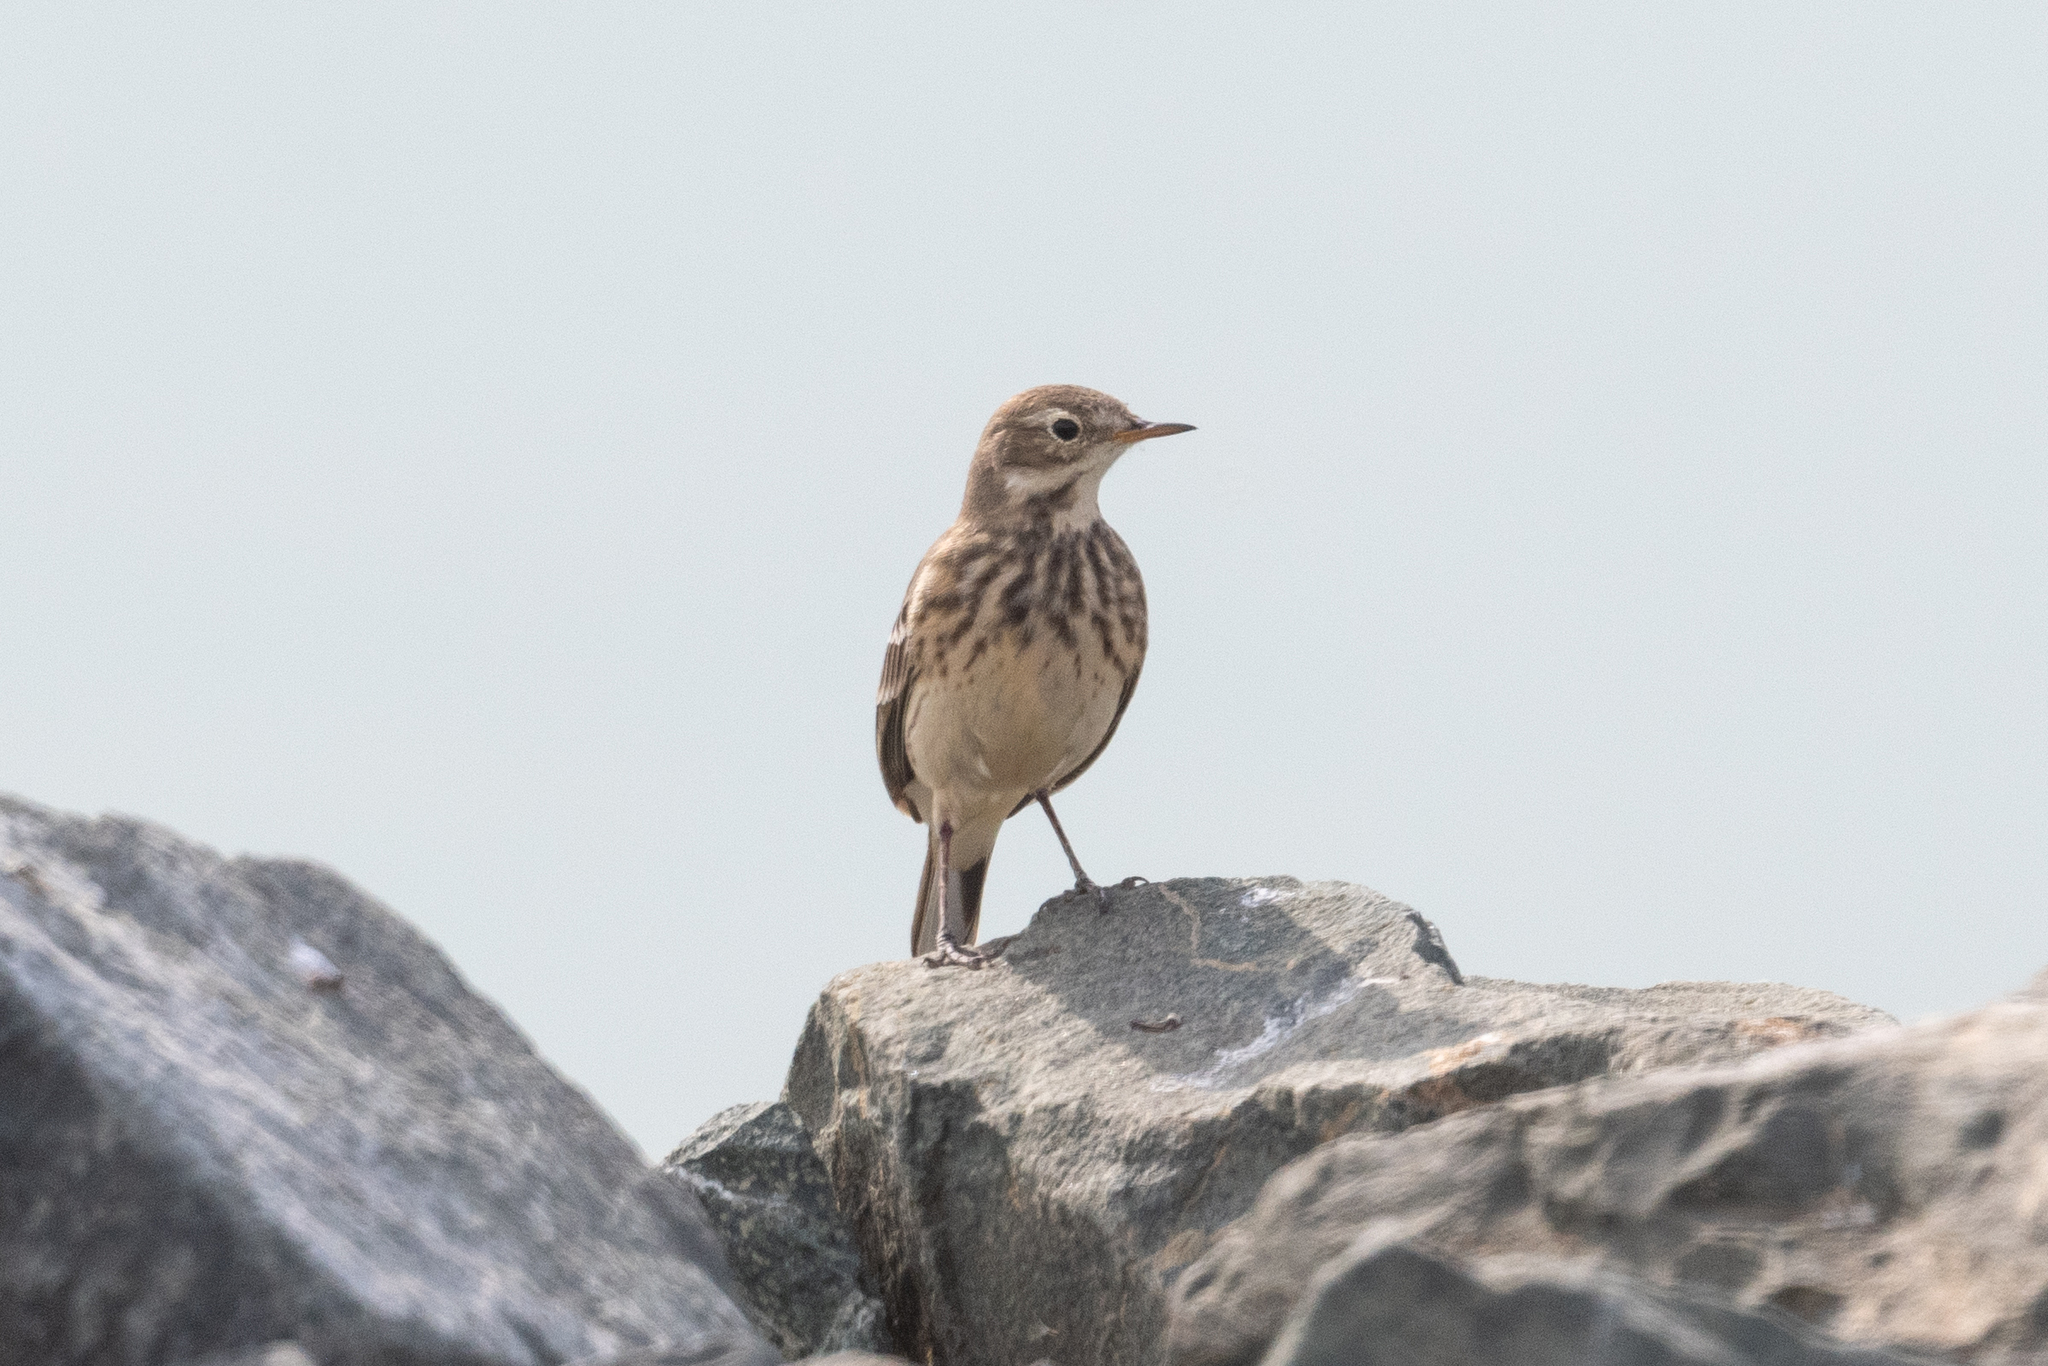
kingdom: Animalia
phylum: Chordata
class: Aves
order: Passeriformes
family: Motacillidae
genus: Anthus
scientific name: Anthus rubescens
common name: Buff-bellied pipit
